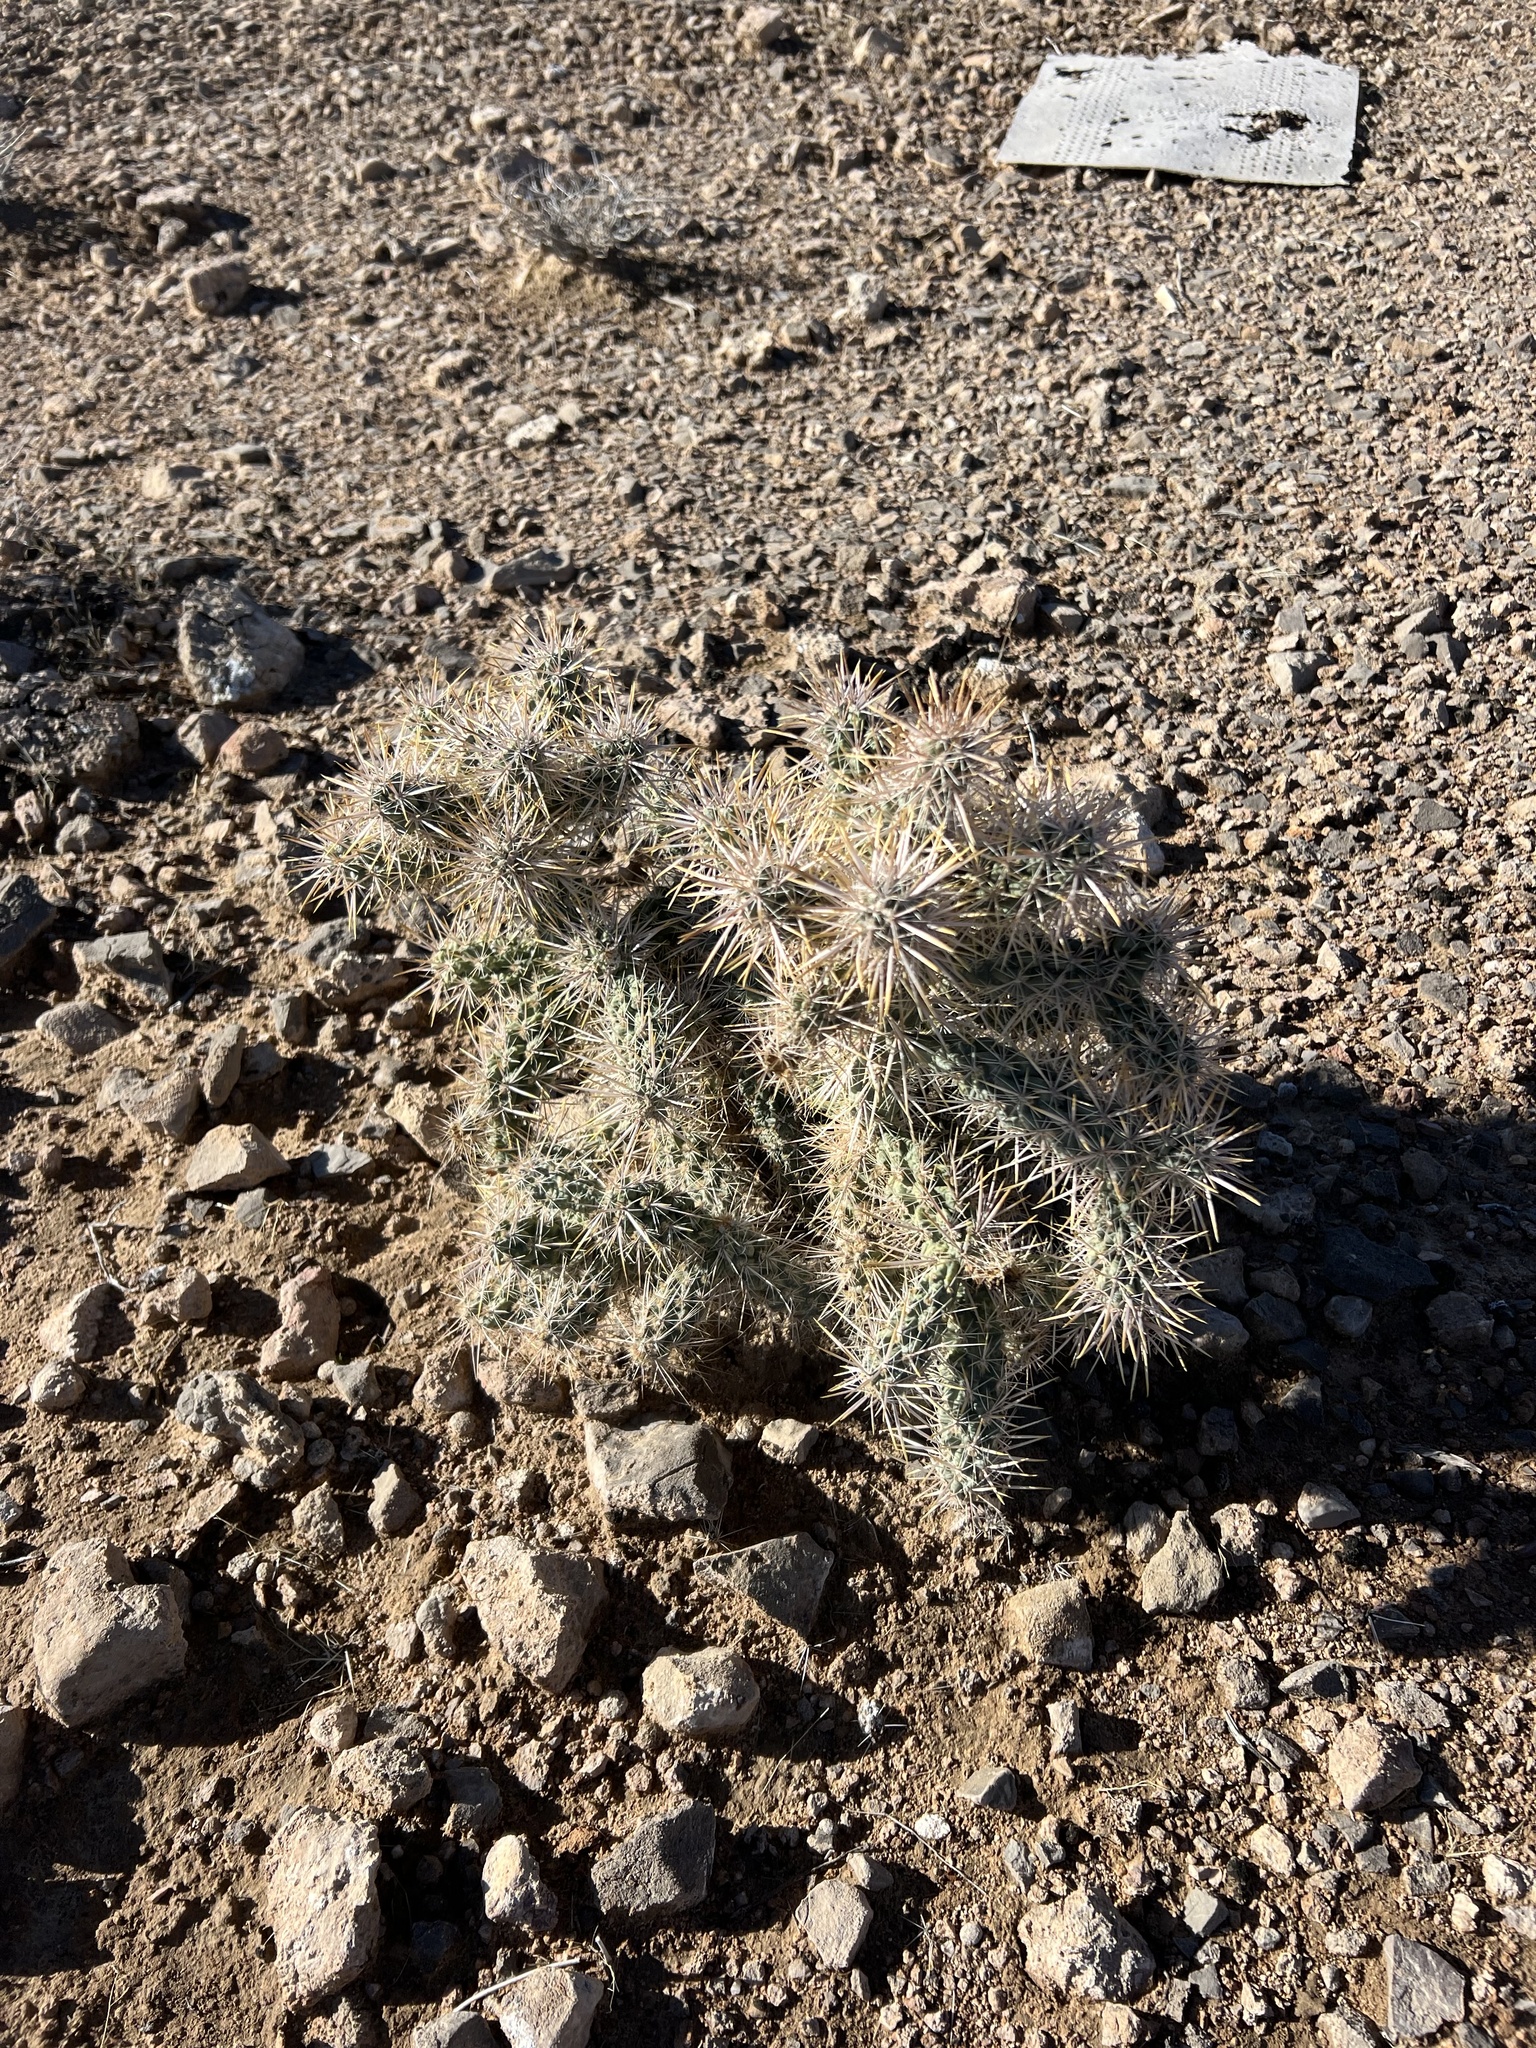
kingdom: Plantae
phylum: Tracheophyta
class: Magnoliopsida
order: Caryophyllales
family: Cactaceae
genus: Cylindropuntia
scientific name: Cylindropuntia echinocarpa
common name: Ground cholla
